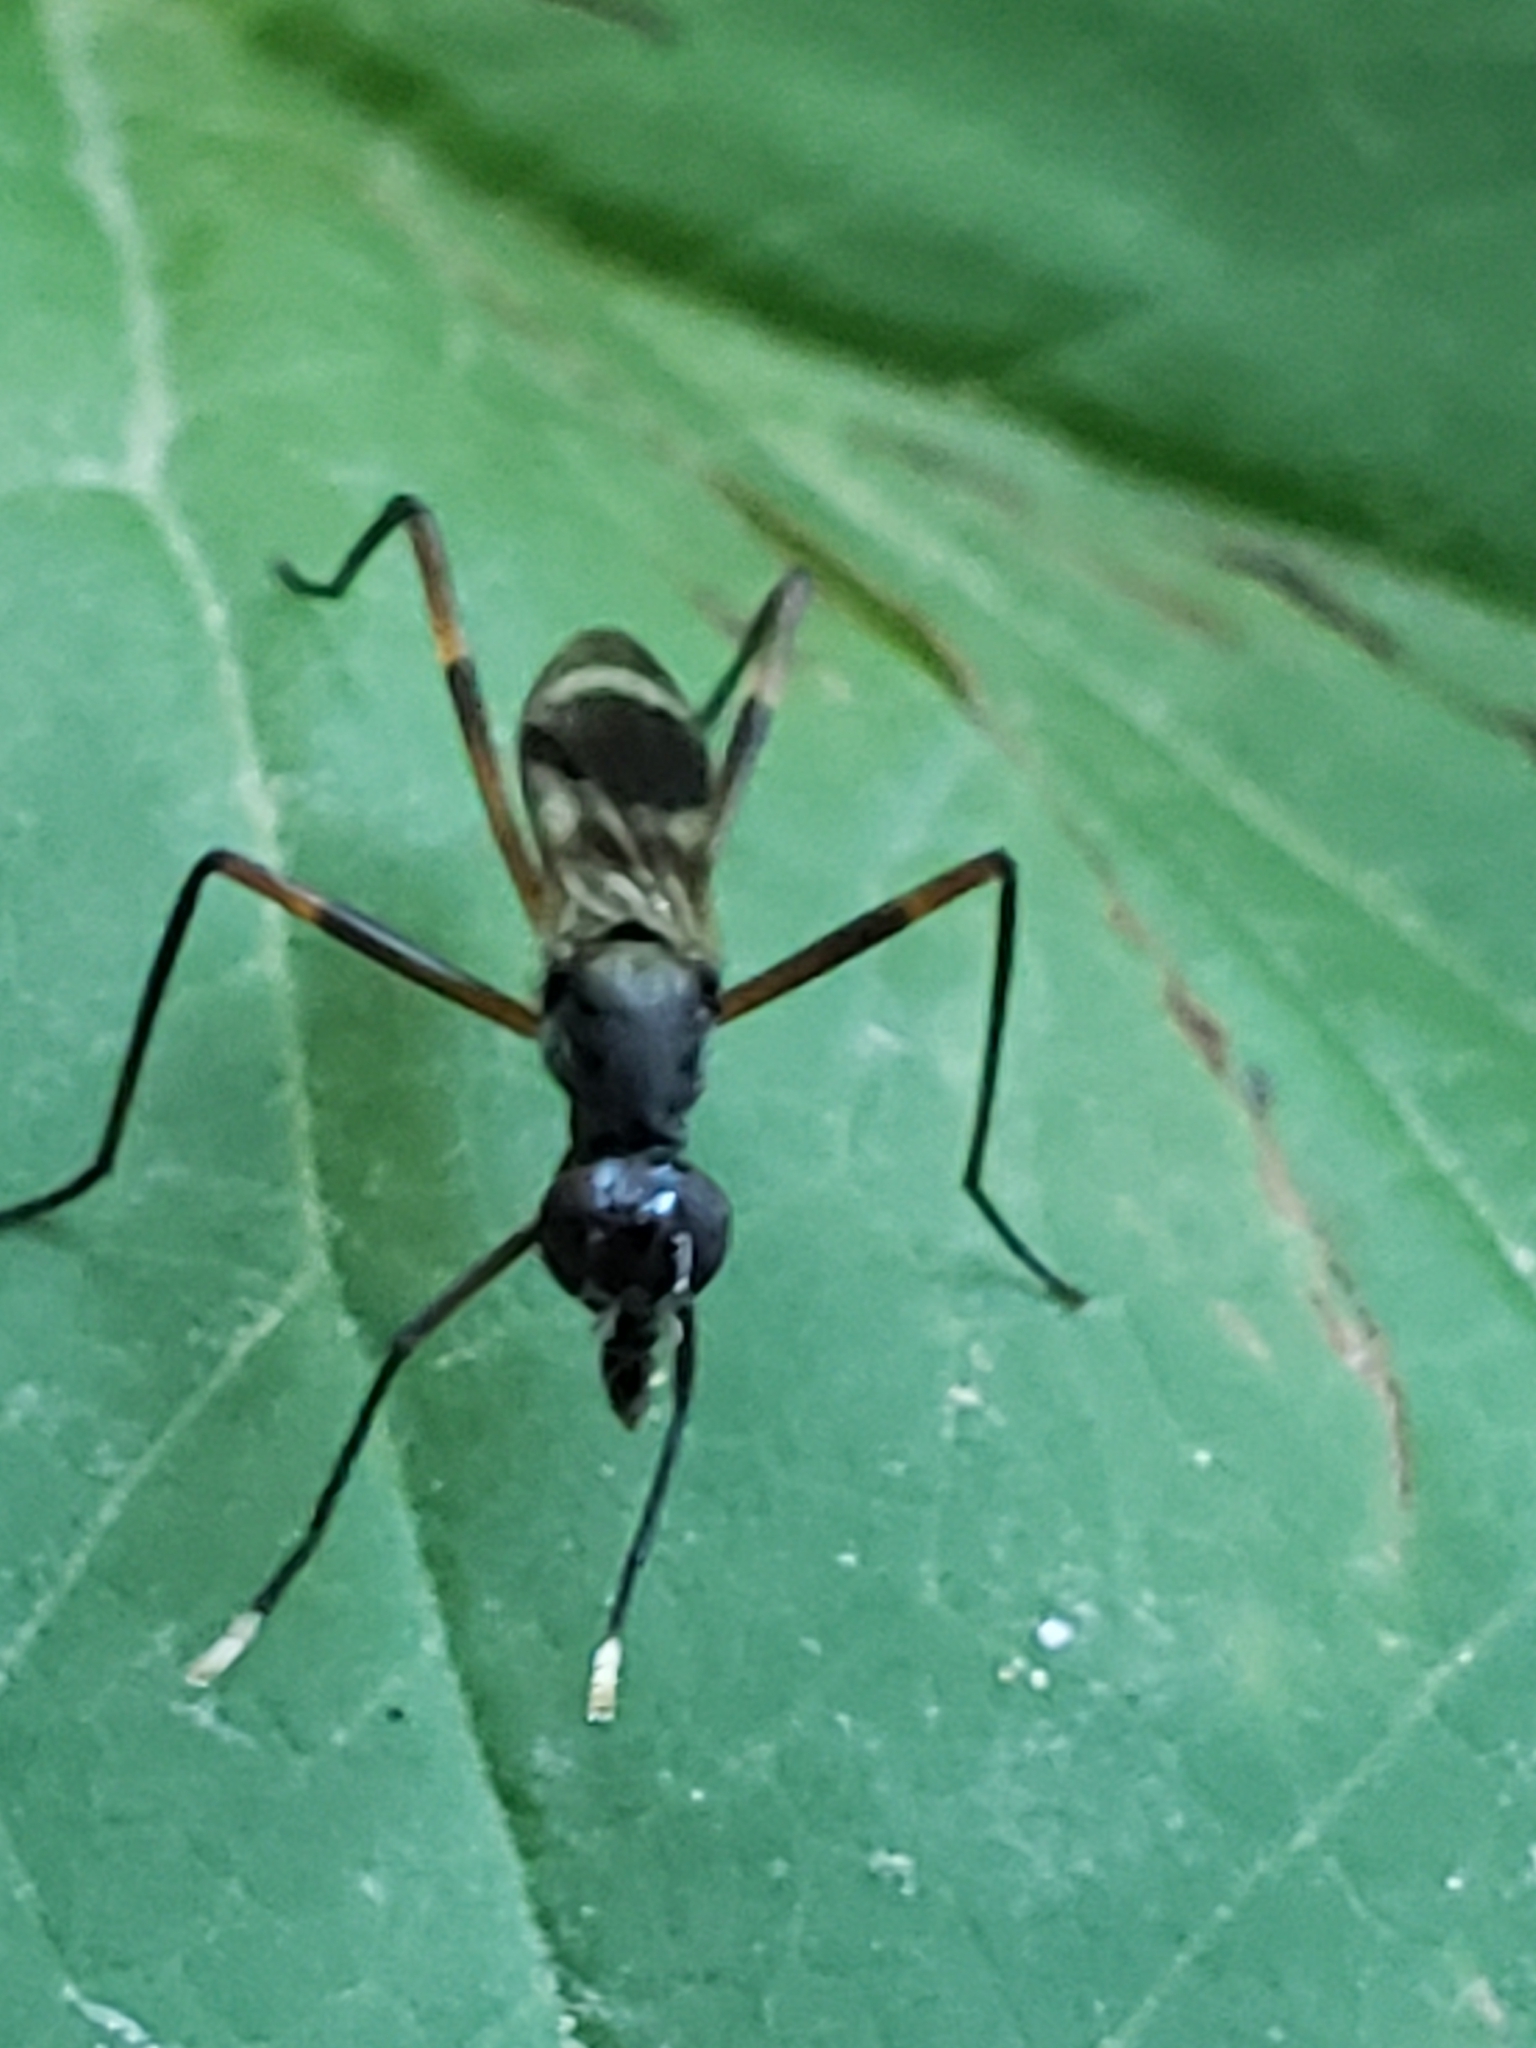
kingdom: Animalia
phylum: Arthropoda
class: Insecta
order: Diptera
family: Micropezidae
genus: Taeniaptera
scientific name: Taeniaptera trivittata
